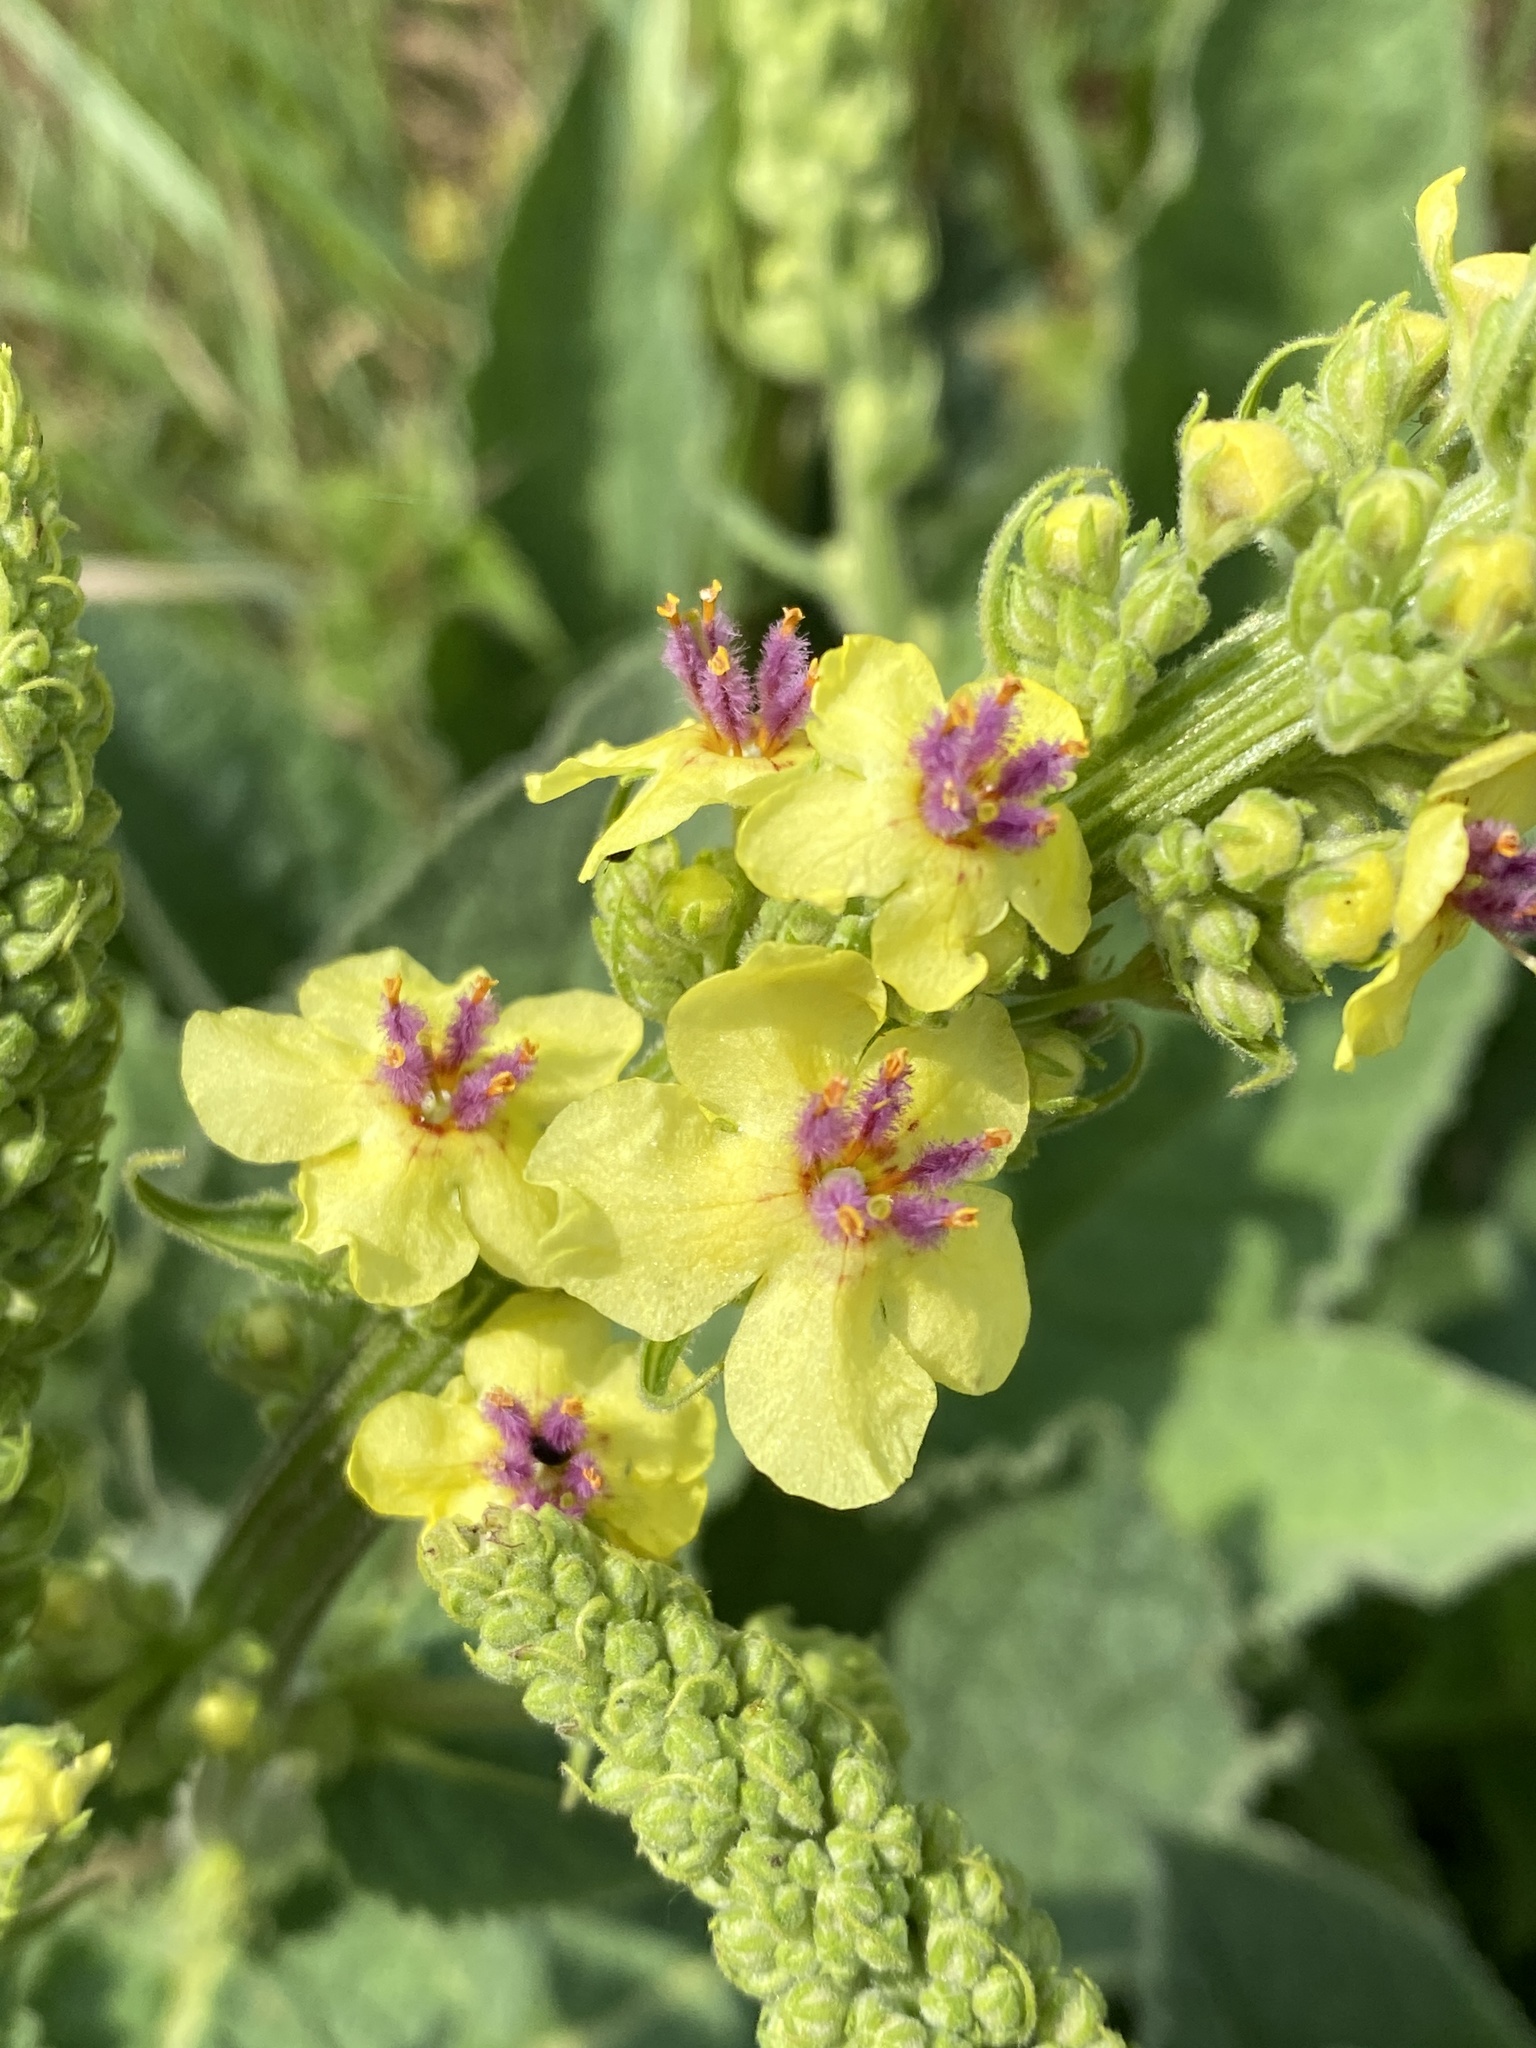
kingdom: Plantae
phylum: Tracheophyta
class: Magnoliopsida
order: Lamiales
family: Scrophulariaceae
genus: Verbascum
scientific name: Verbascum nigrum
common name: Dark mullein
